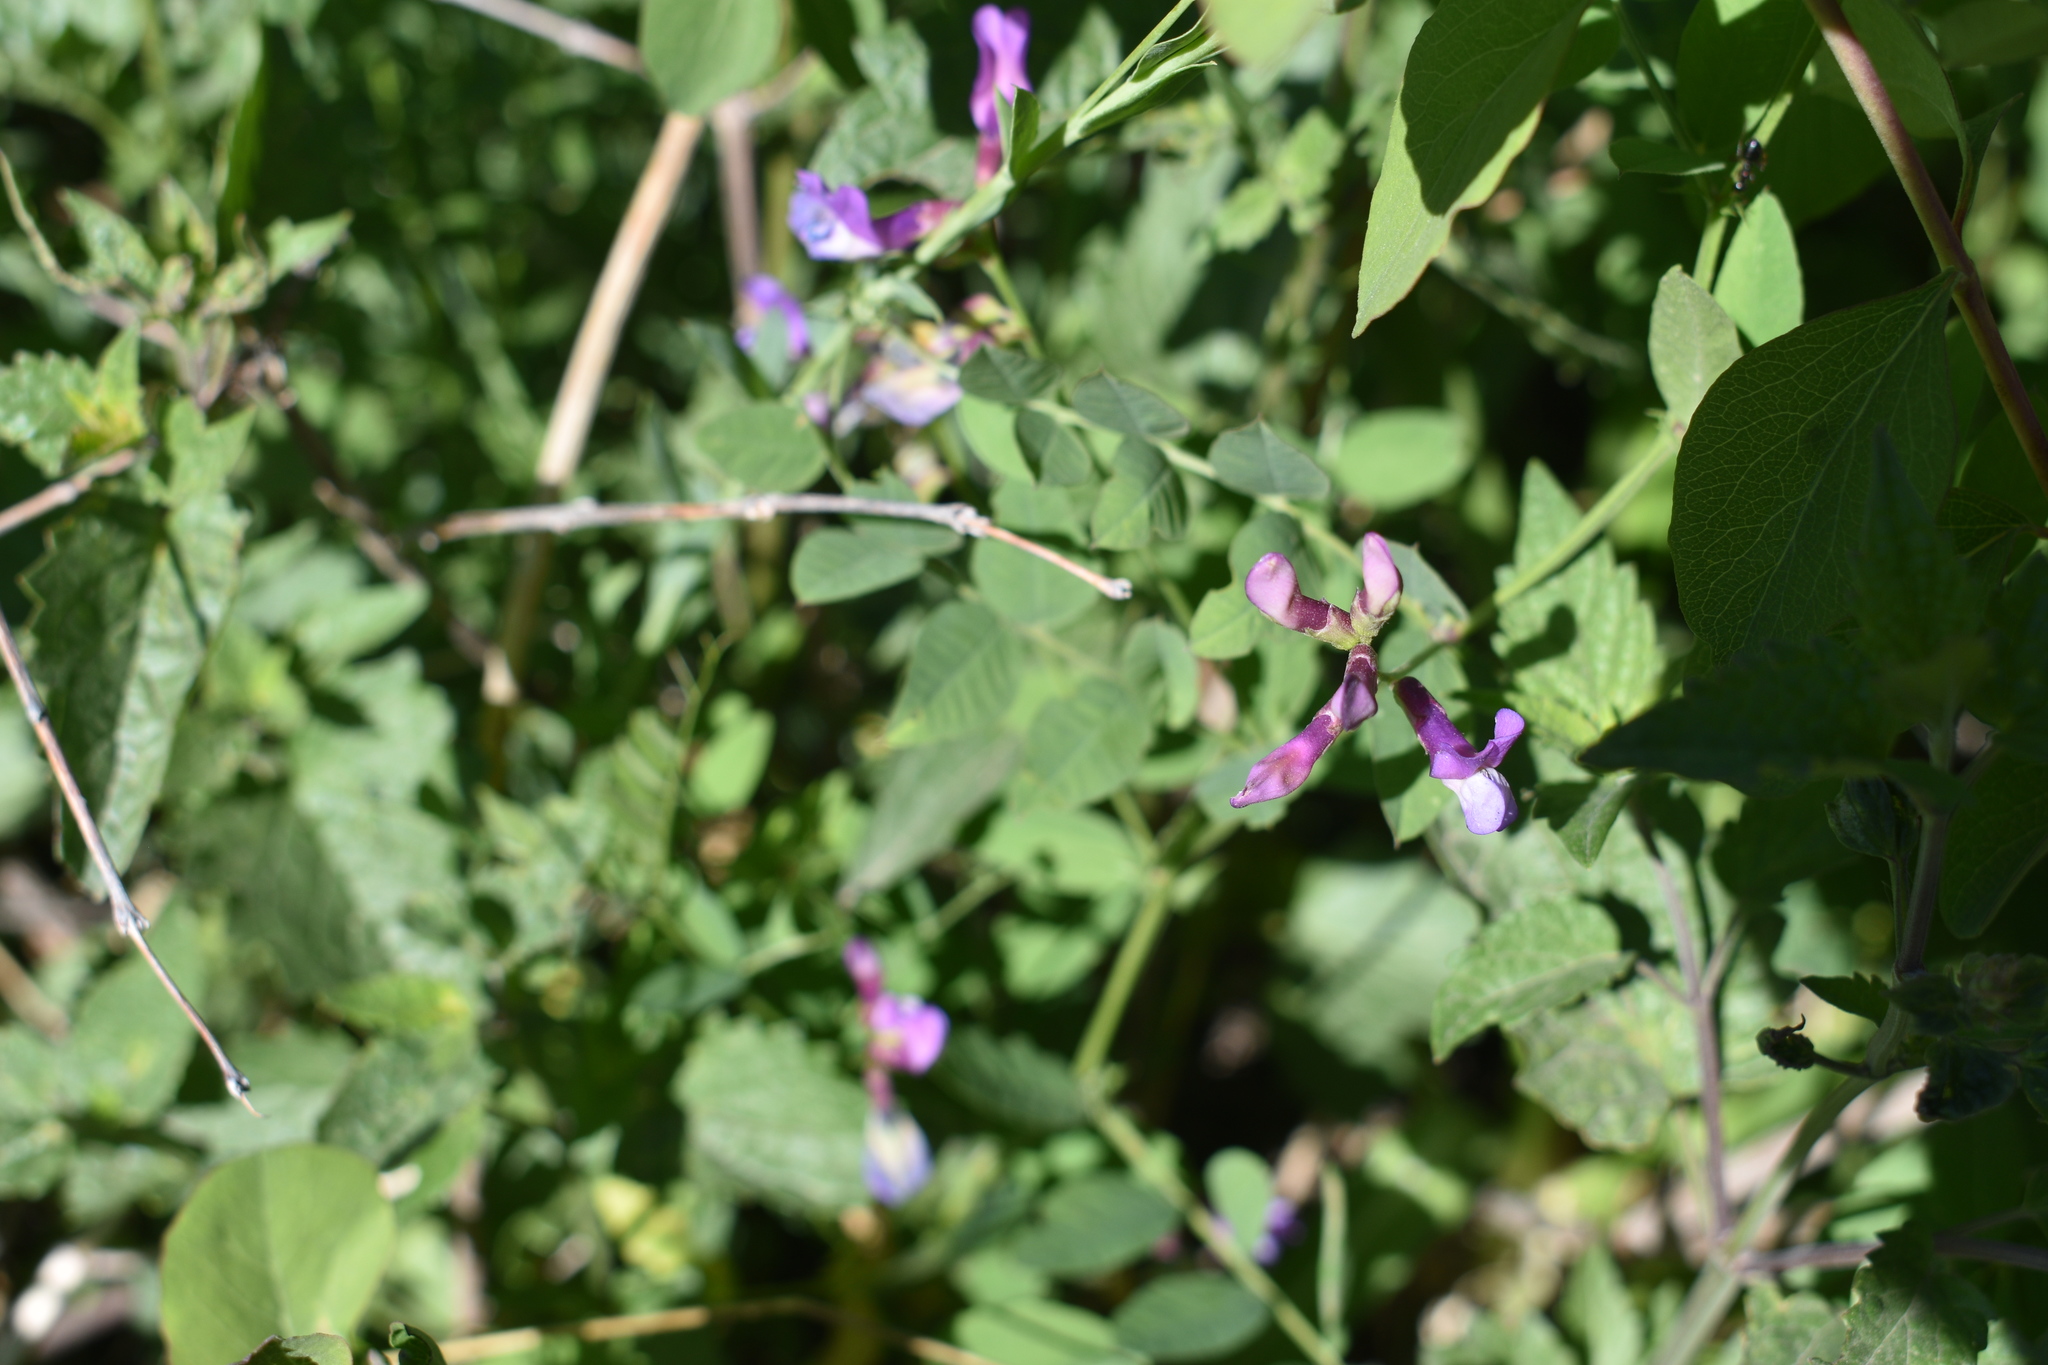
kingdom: Plantae
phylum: Tracheophyta
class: Magnoliopsida
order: Fabales
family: Fabaceae
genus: Vicia
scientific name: Vicia americana
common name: American vetch
